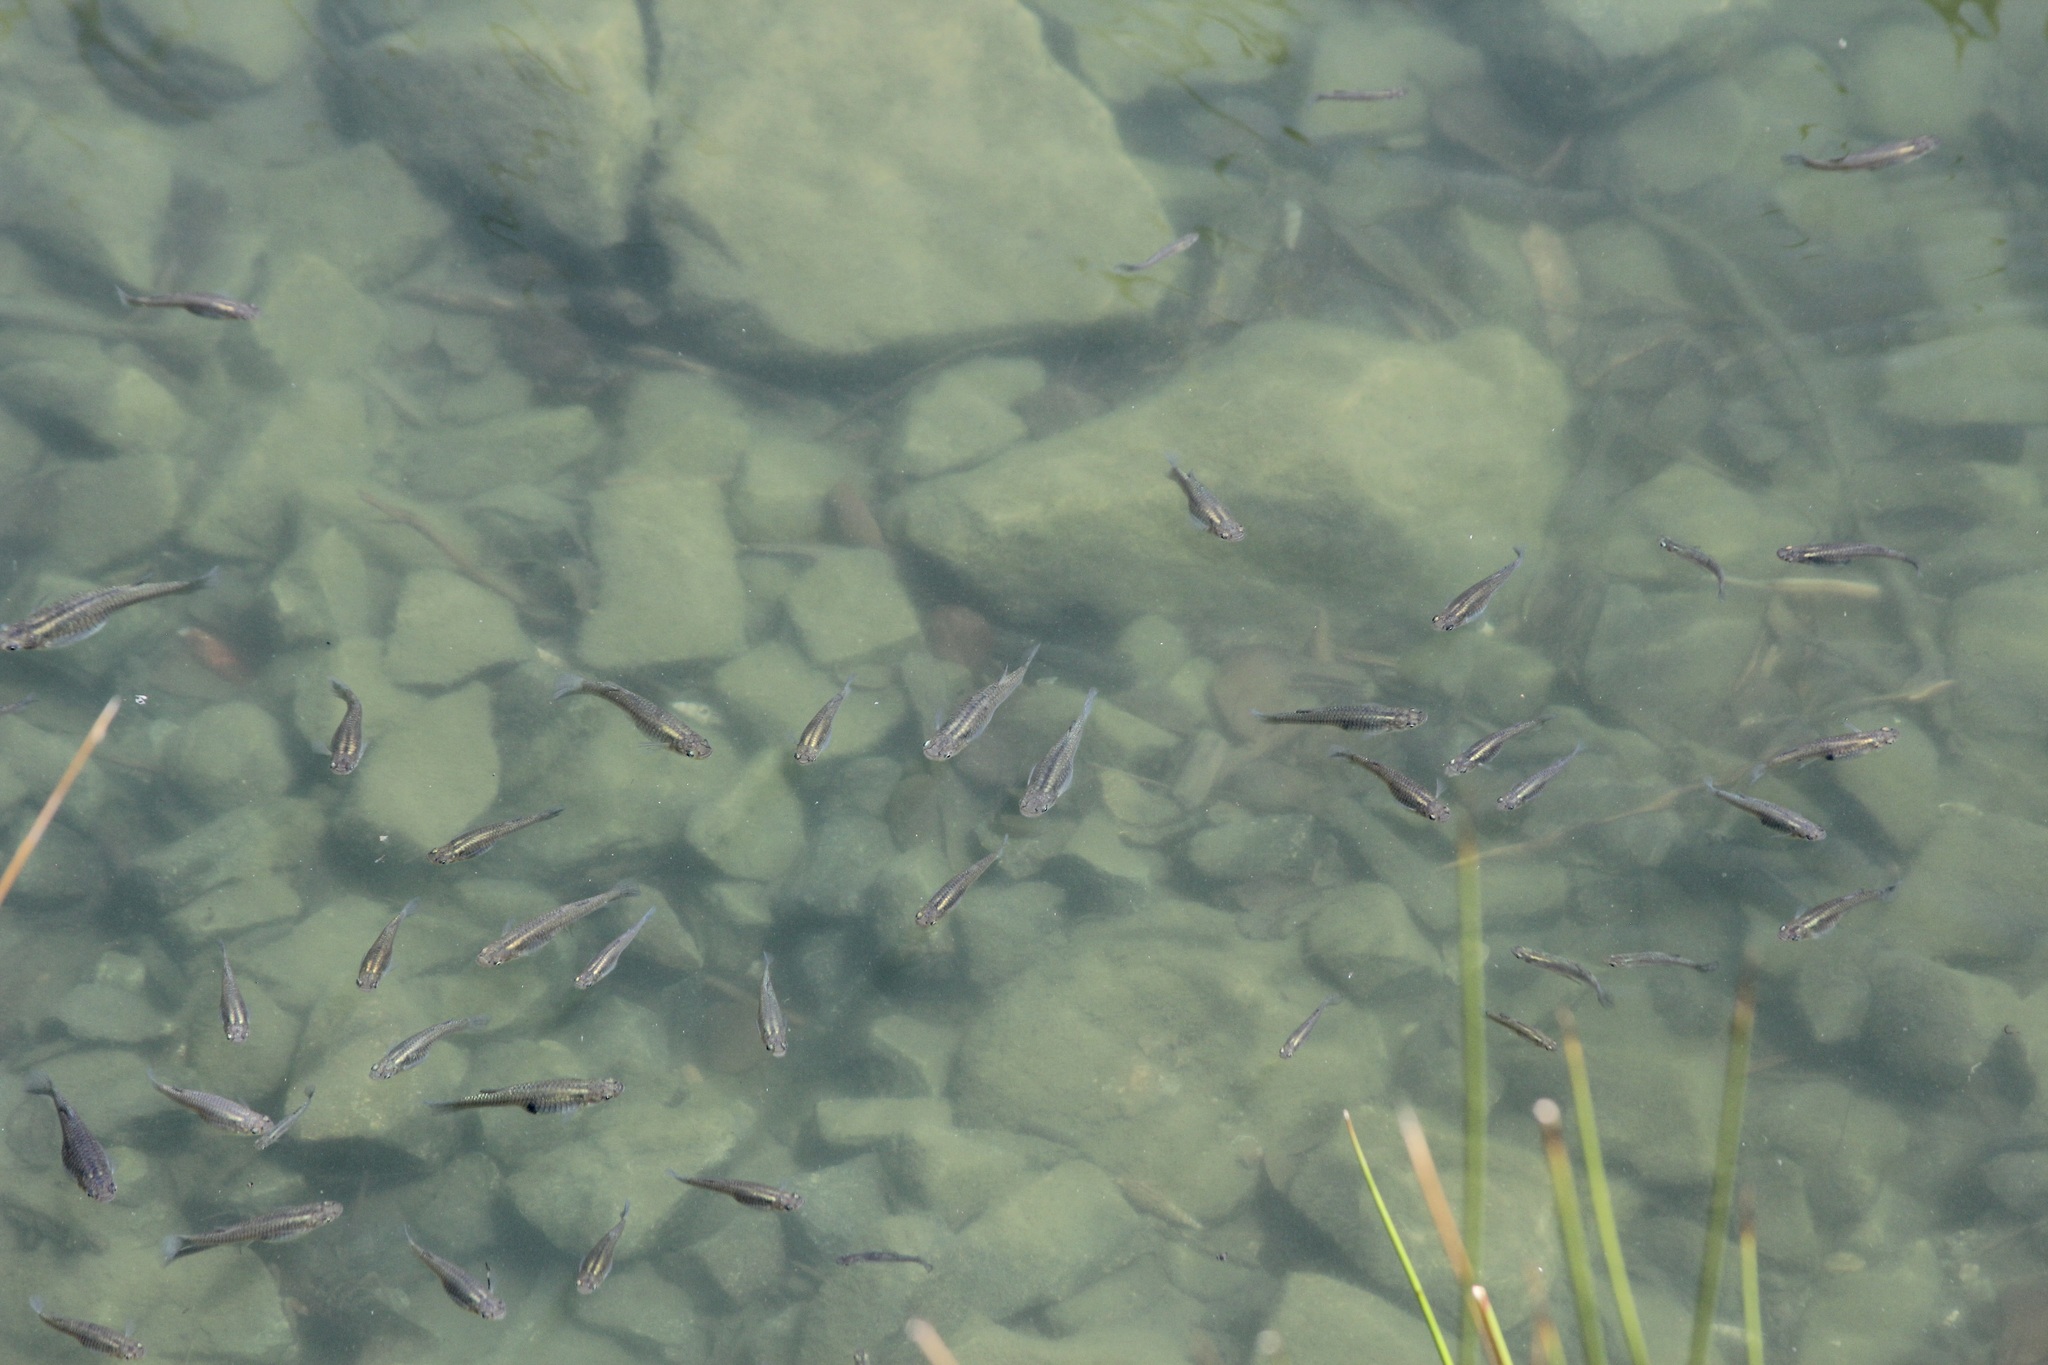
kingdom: Animalia
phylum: Chordata
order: Cyprinodontiformes
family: Poeciliidae
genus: Gambusia
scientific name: Gambusia affinis
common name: Mosquitofish
